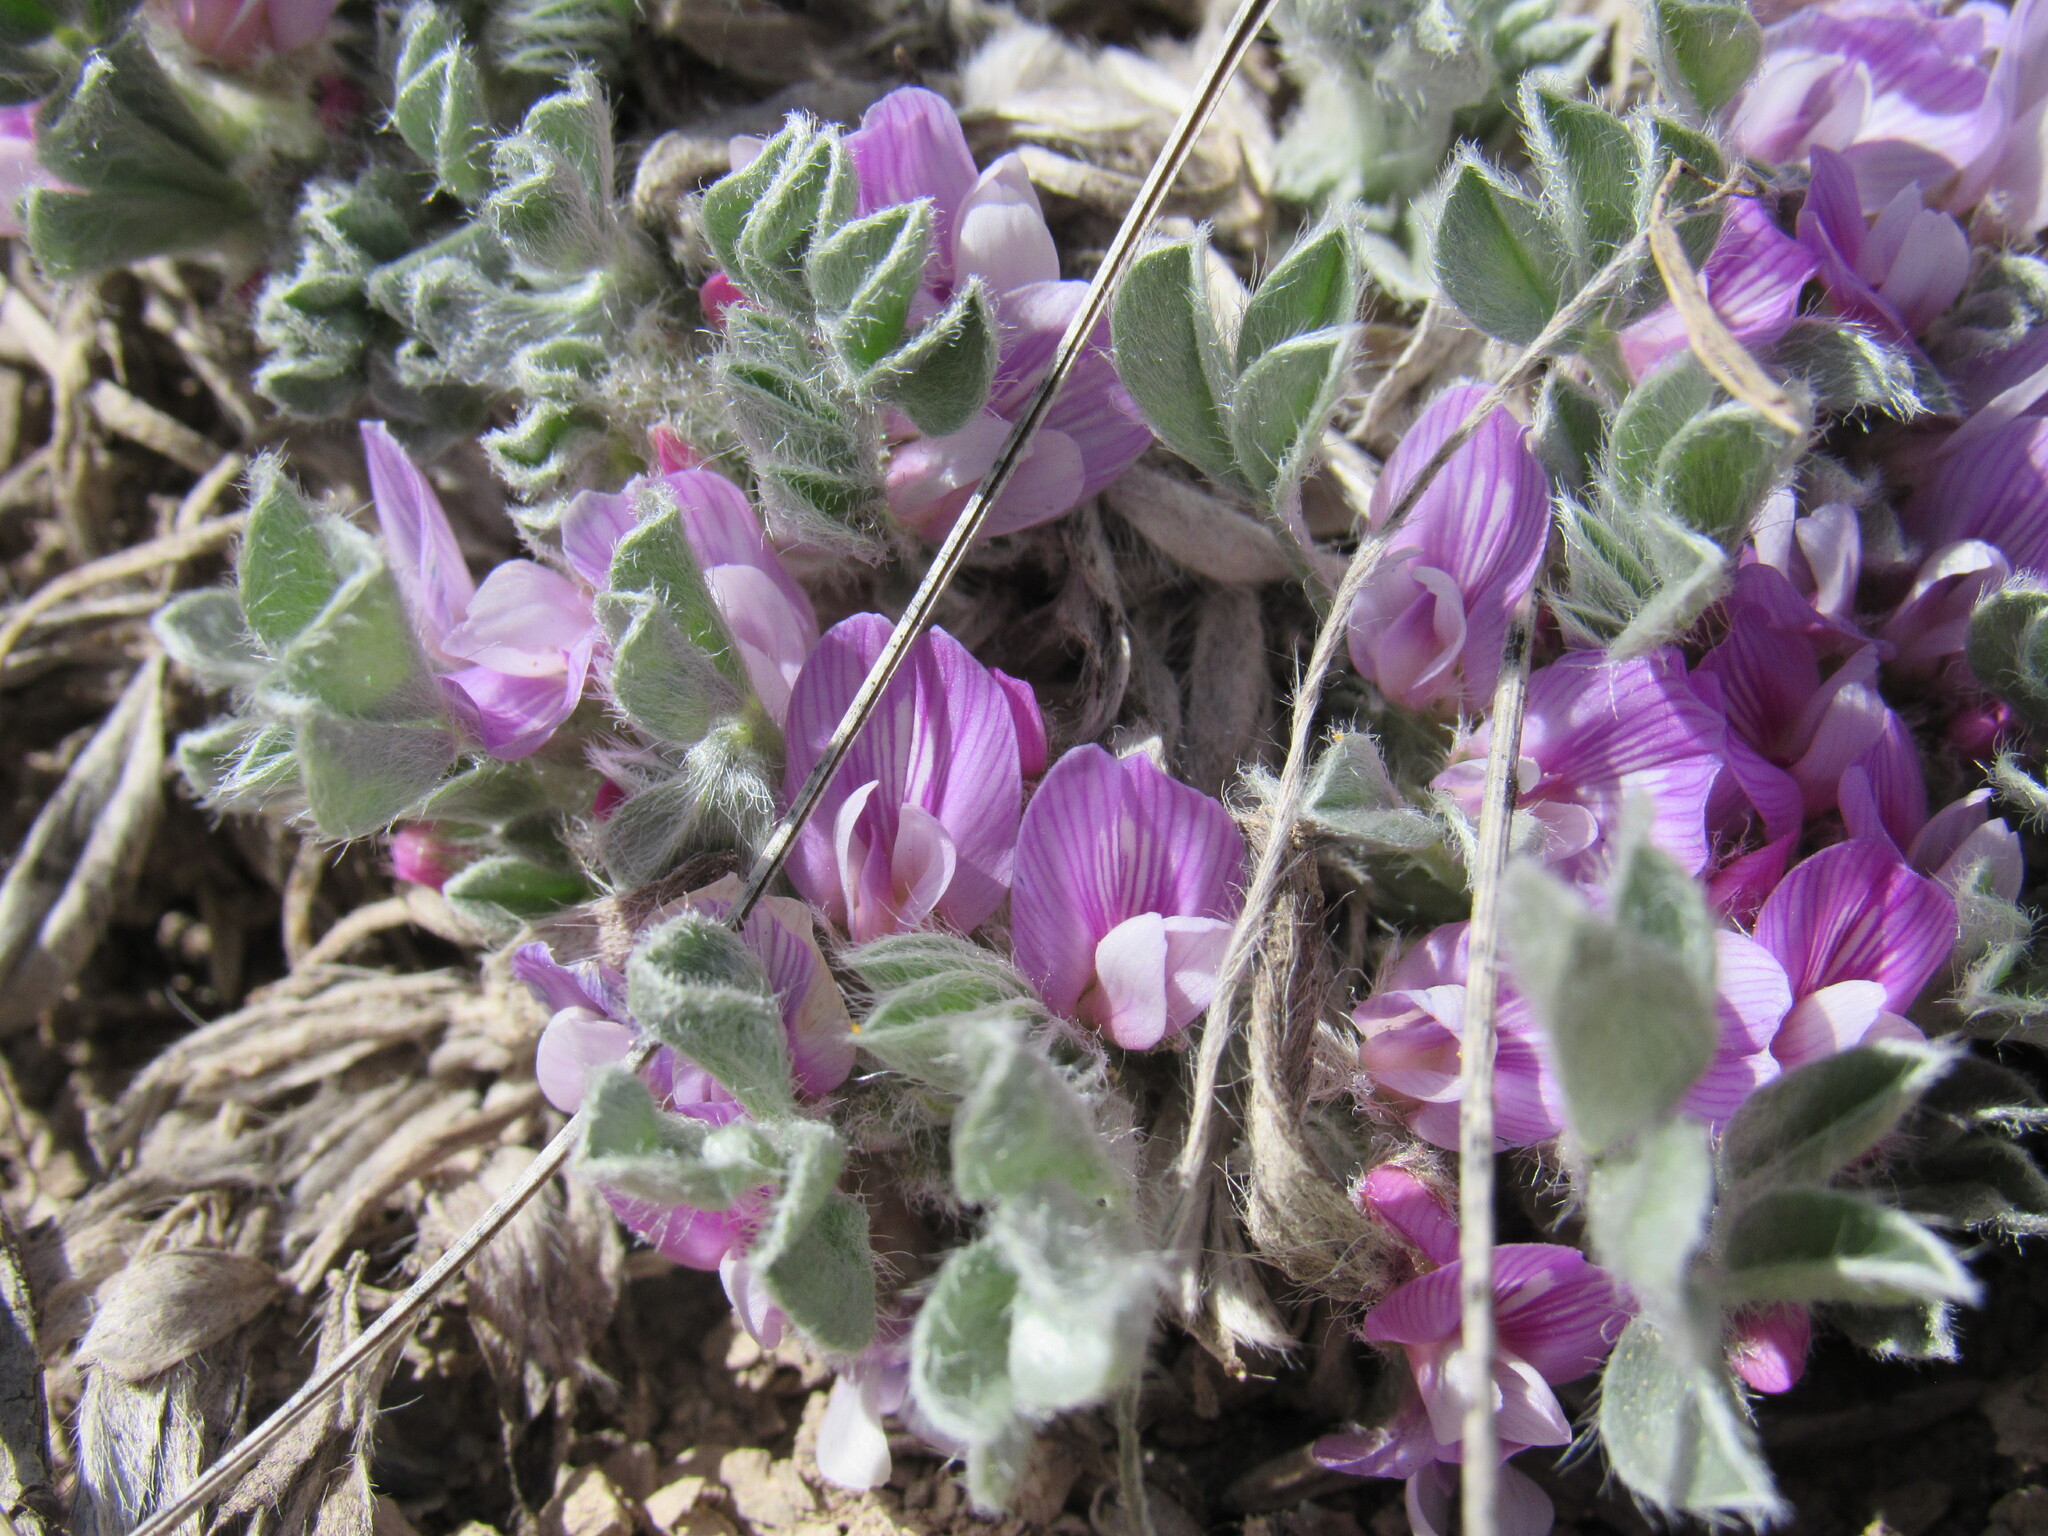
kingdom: Plantae
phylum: Tracheophyta
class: Magnoliopsida
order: Fabales
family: Fabaceae
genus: Astragalus
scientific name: Astragalus tridactylicus
